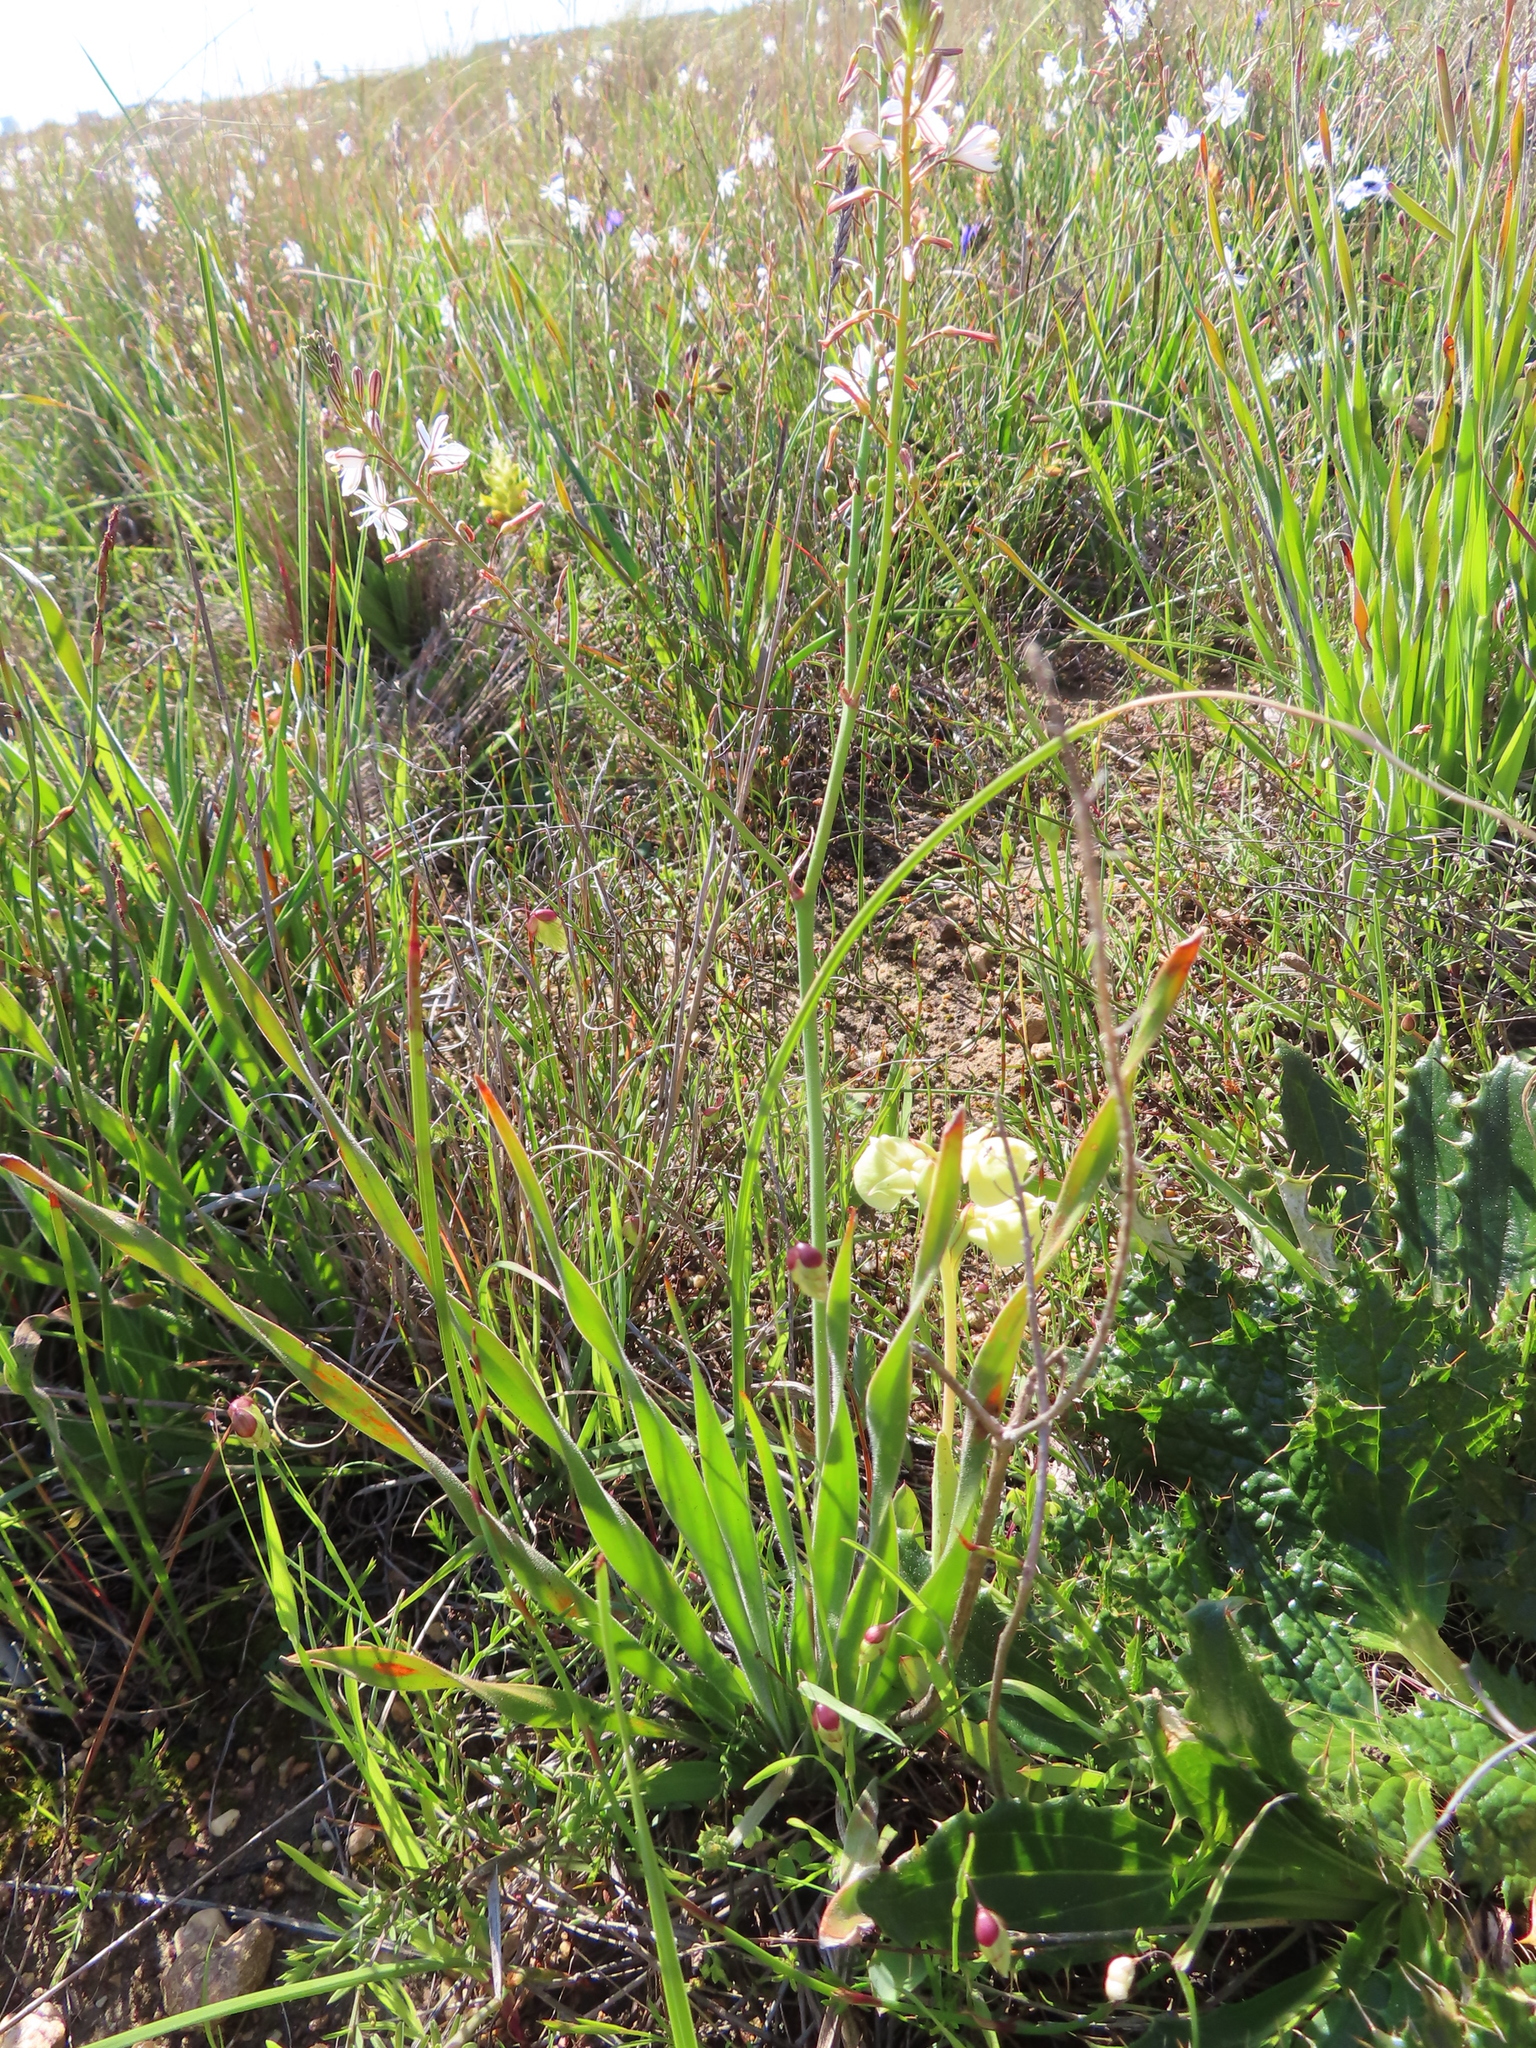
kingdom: Plantae
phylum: Tracheophyta
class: Liliopsida
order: Asparagales
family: Orchidaceae
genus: Pterygodium
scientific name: Pterygodium catholicum
